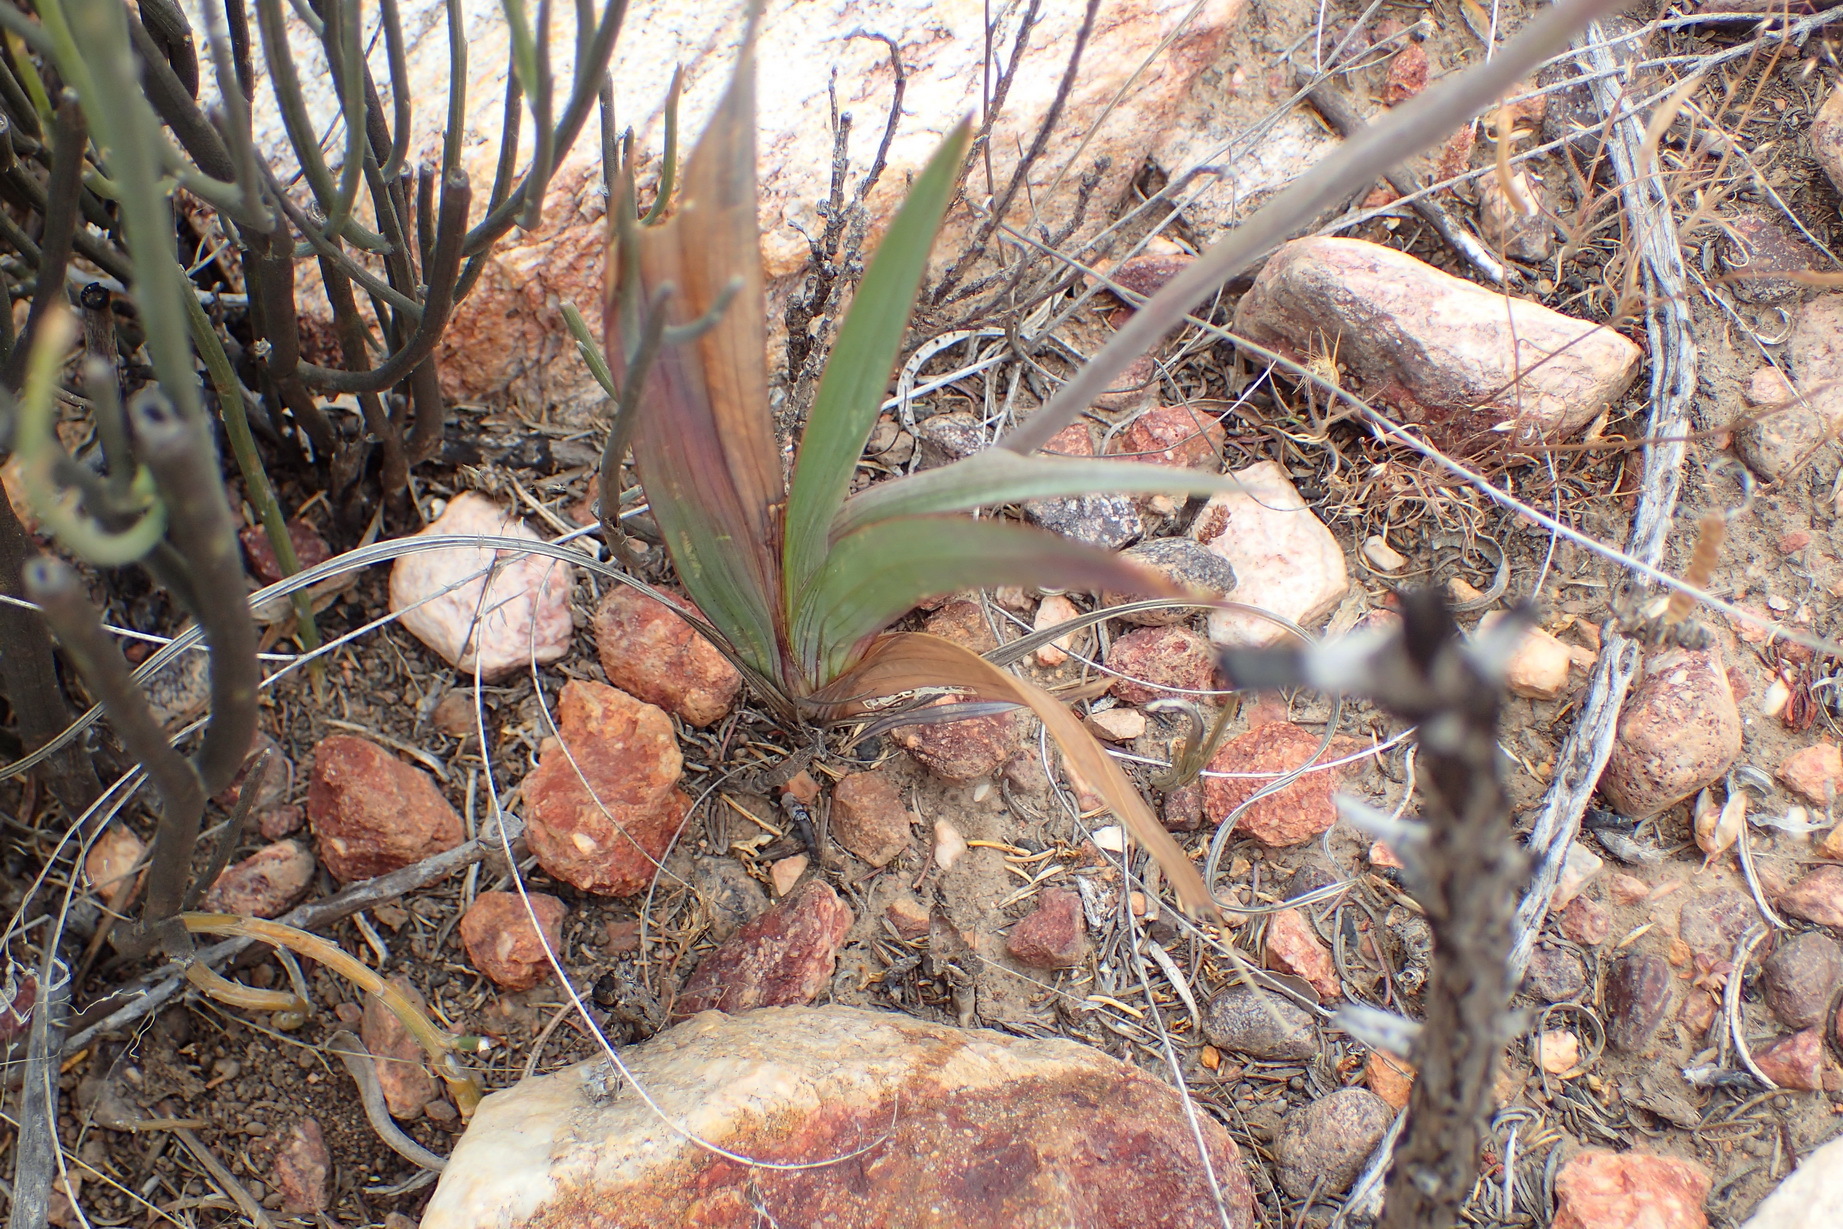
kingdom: Plantae
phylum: Tracheophyta
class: Liliopsida
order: Asparagales
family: Iridaceae
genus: Gladiolus
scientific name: Gladiolus floribundus
